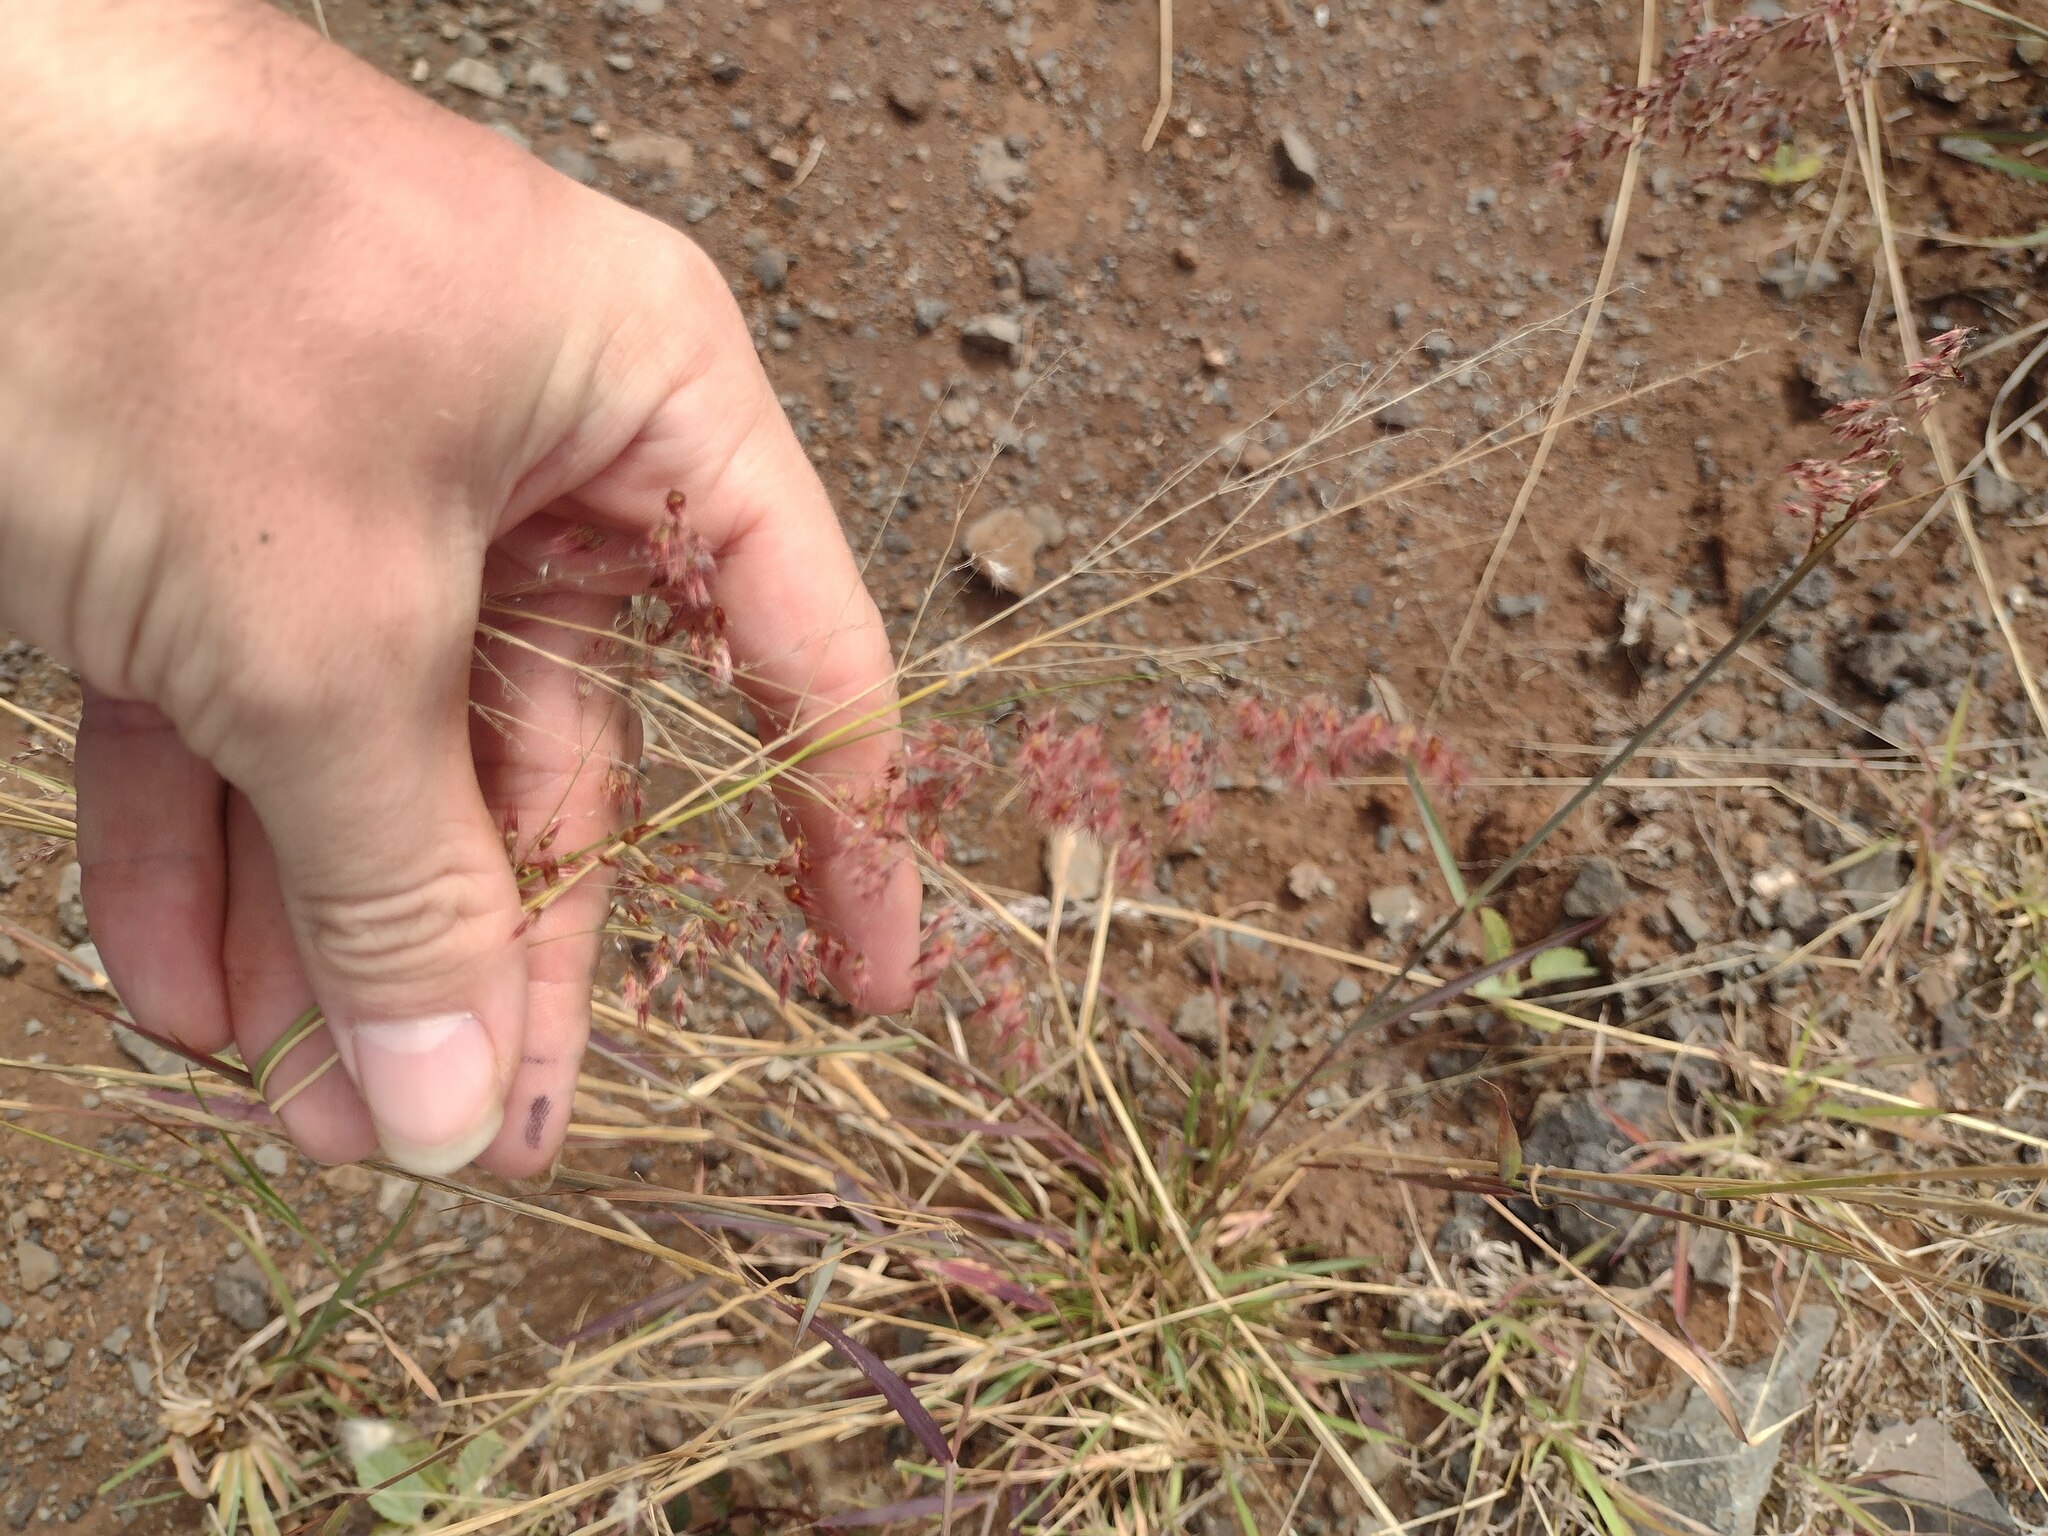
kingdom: Plantae
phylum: Tracheophyta
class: Liliopsida
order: Poales
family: Poaceae
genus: Melinis
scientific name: Melinis repens
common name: Rose natal grass
